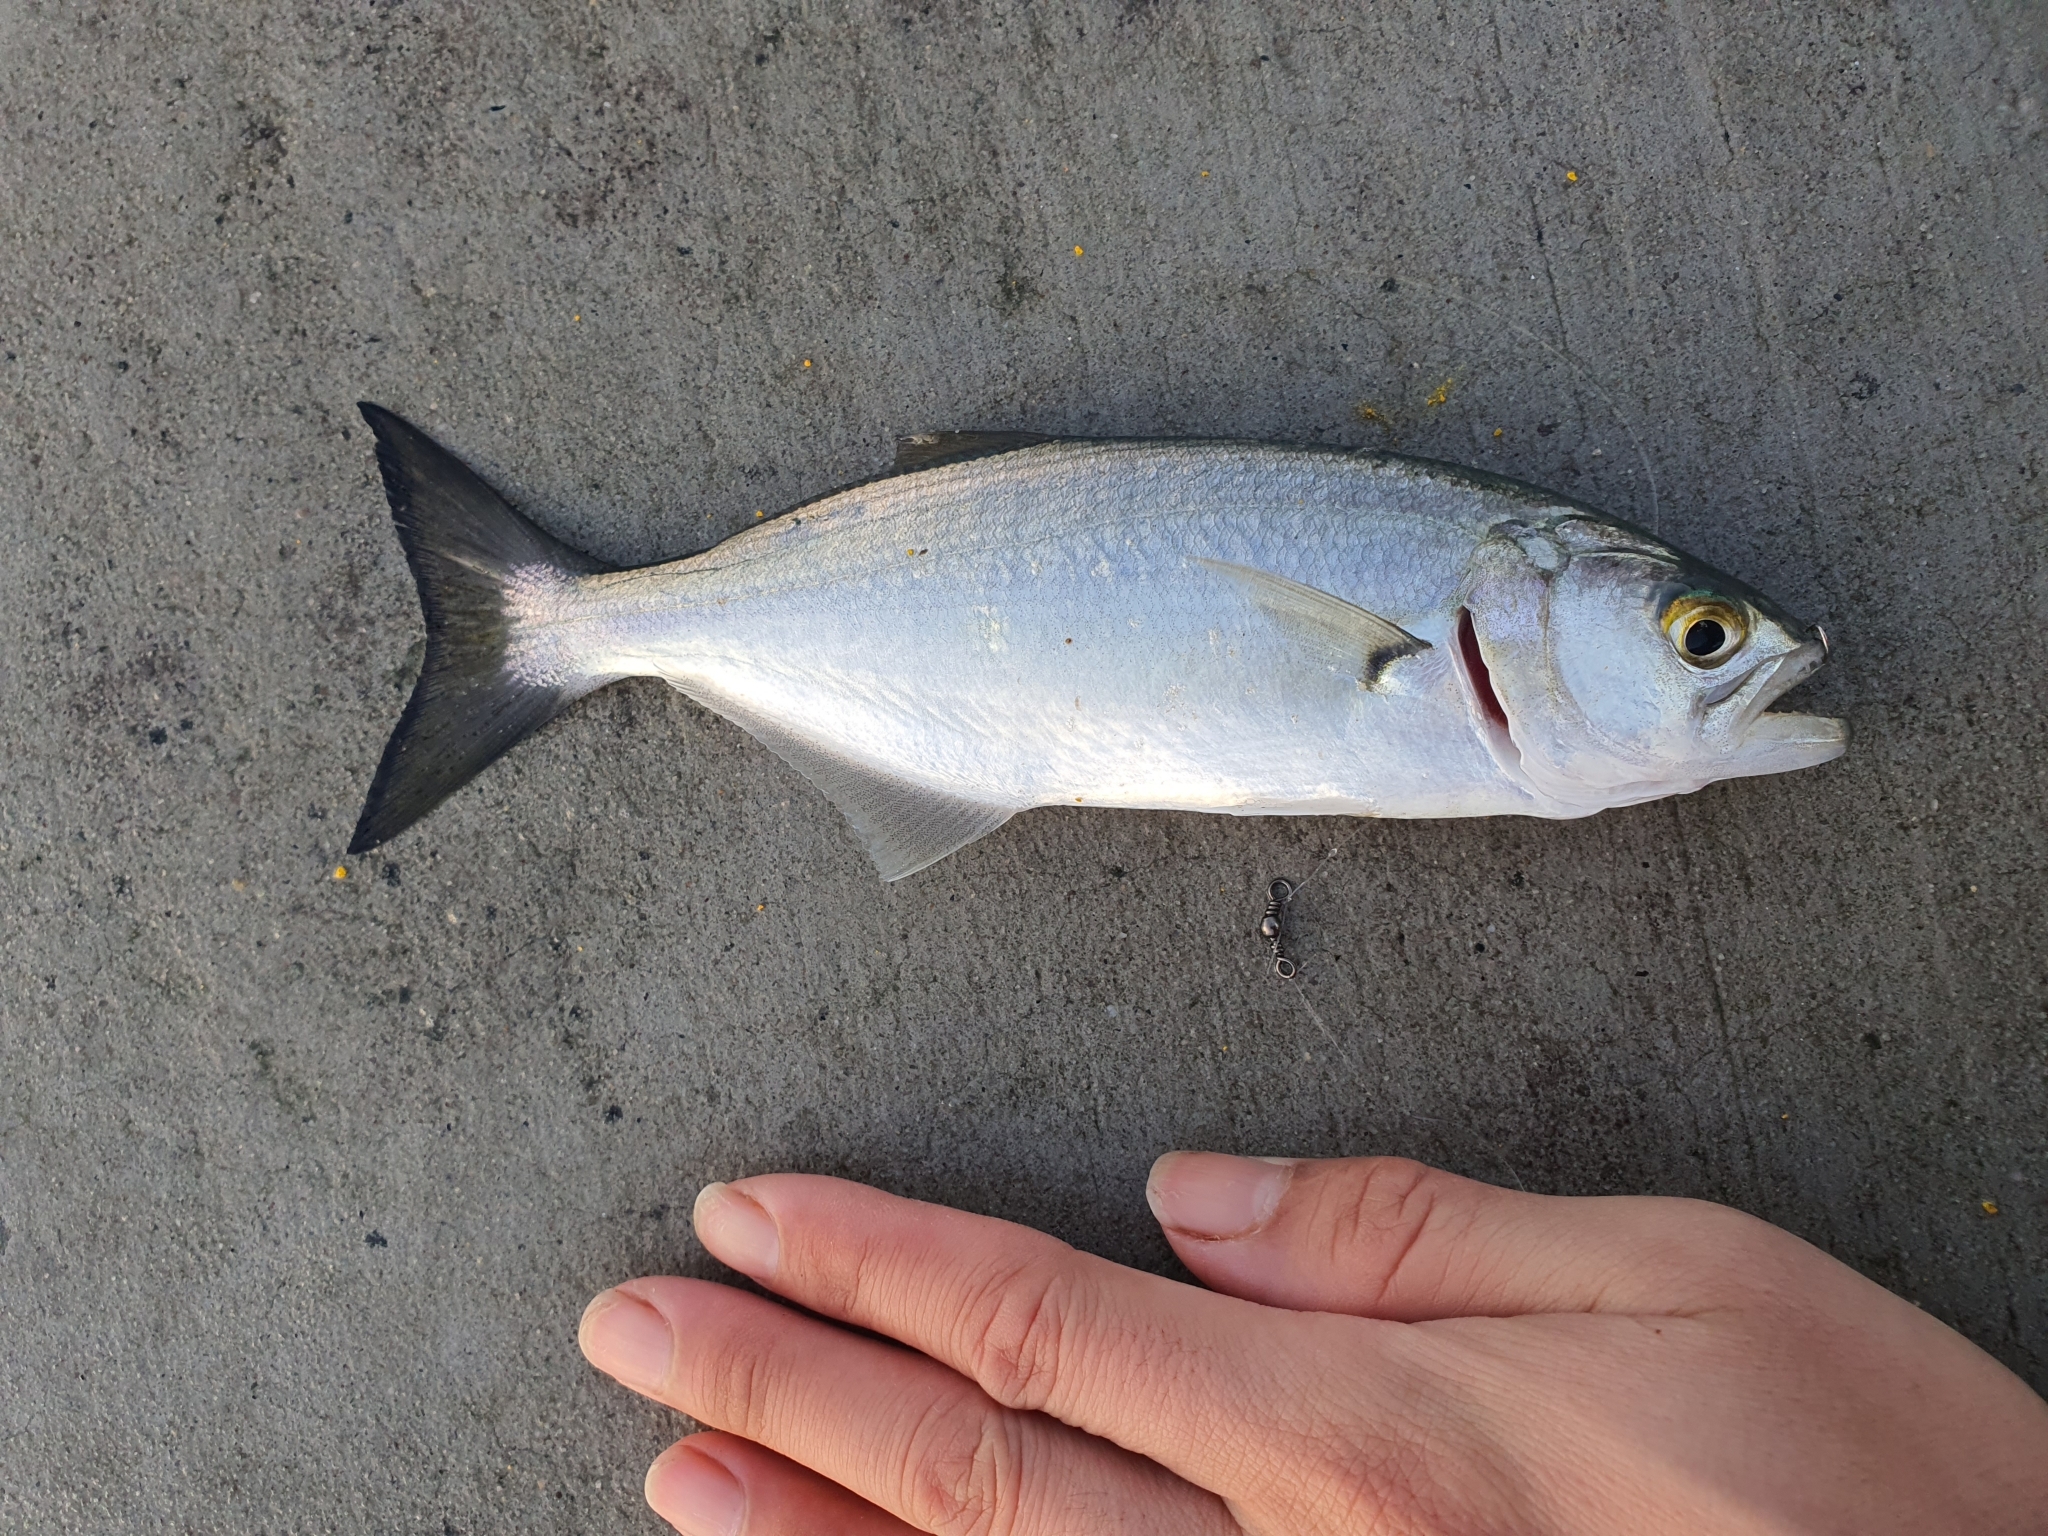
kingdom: Animalia
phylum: Chordata
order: Perciformes
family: Pomatomidae
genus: Pomatomus
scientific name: Pomatomus saltatrix
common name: Bluefish
